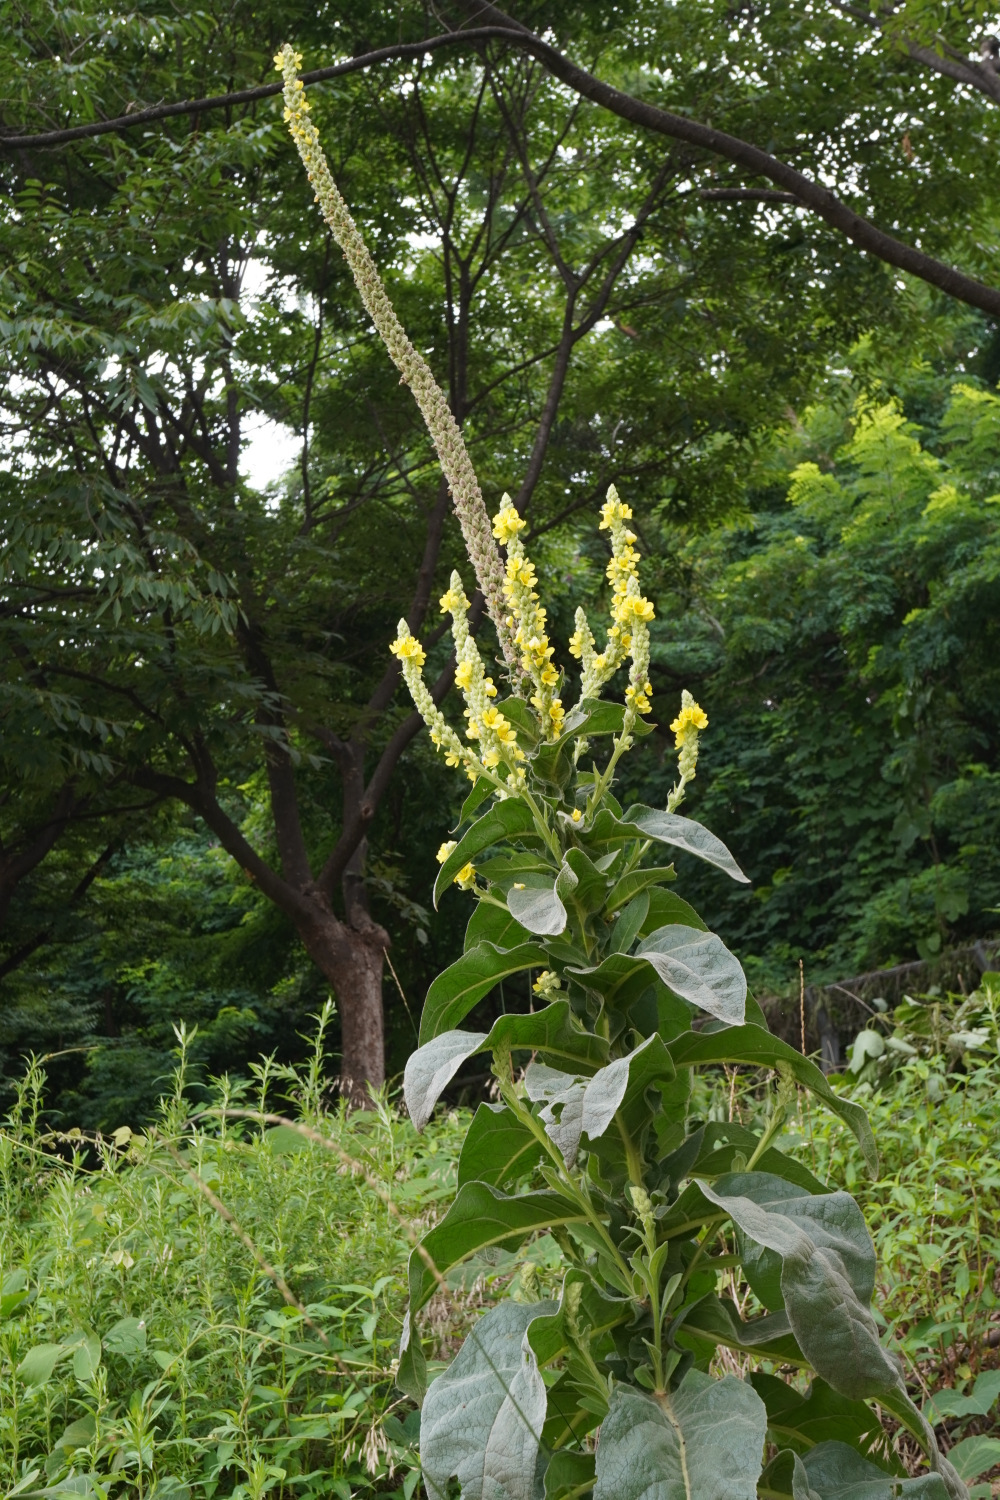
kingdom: Plantae
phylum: Tracheophyta
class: Magnoliopsida
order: Lamiales
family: Scrophulariaceae
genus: Verbascum
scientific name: Verbascum thapsus
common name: Common mullein
